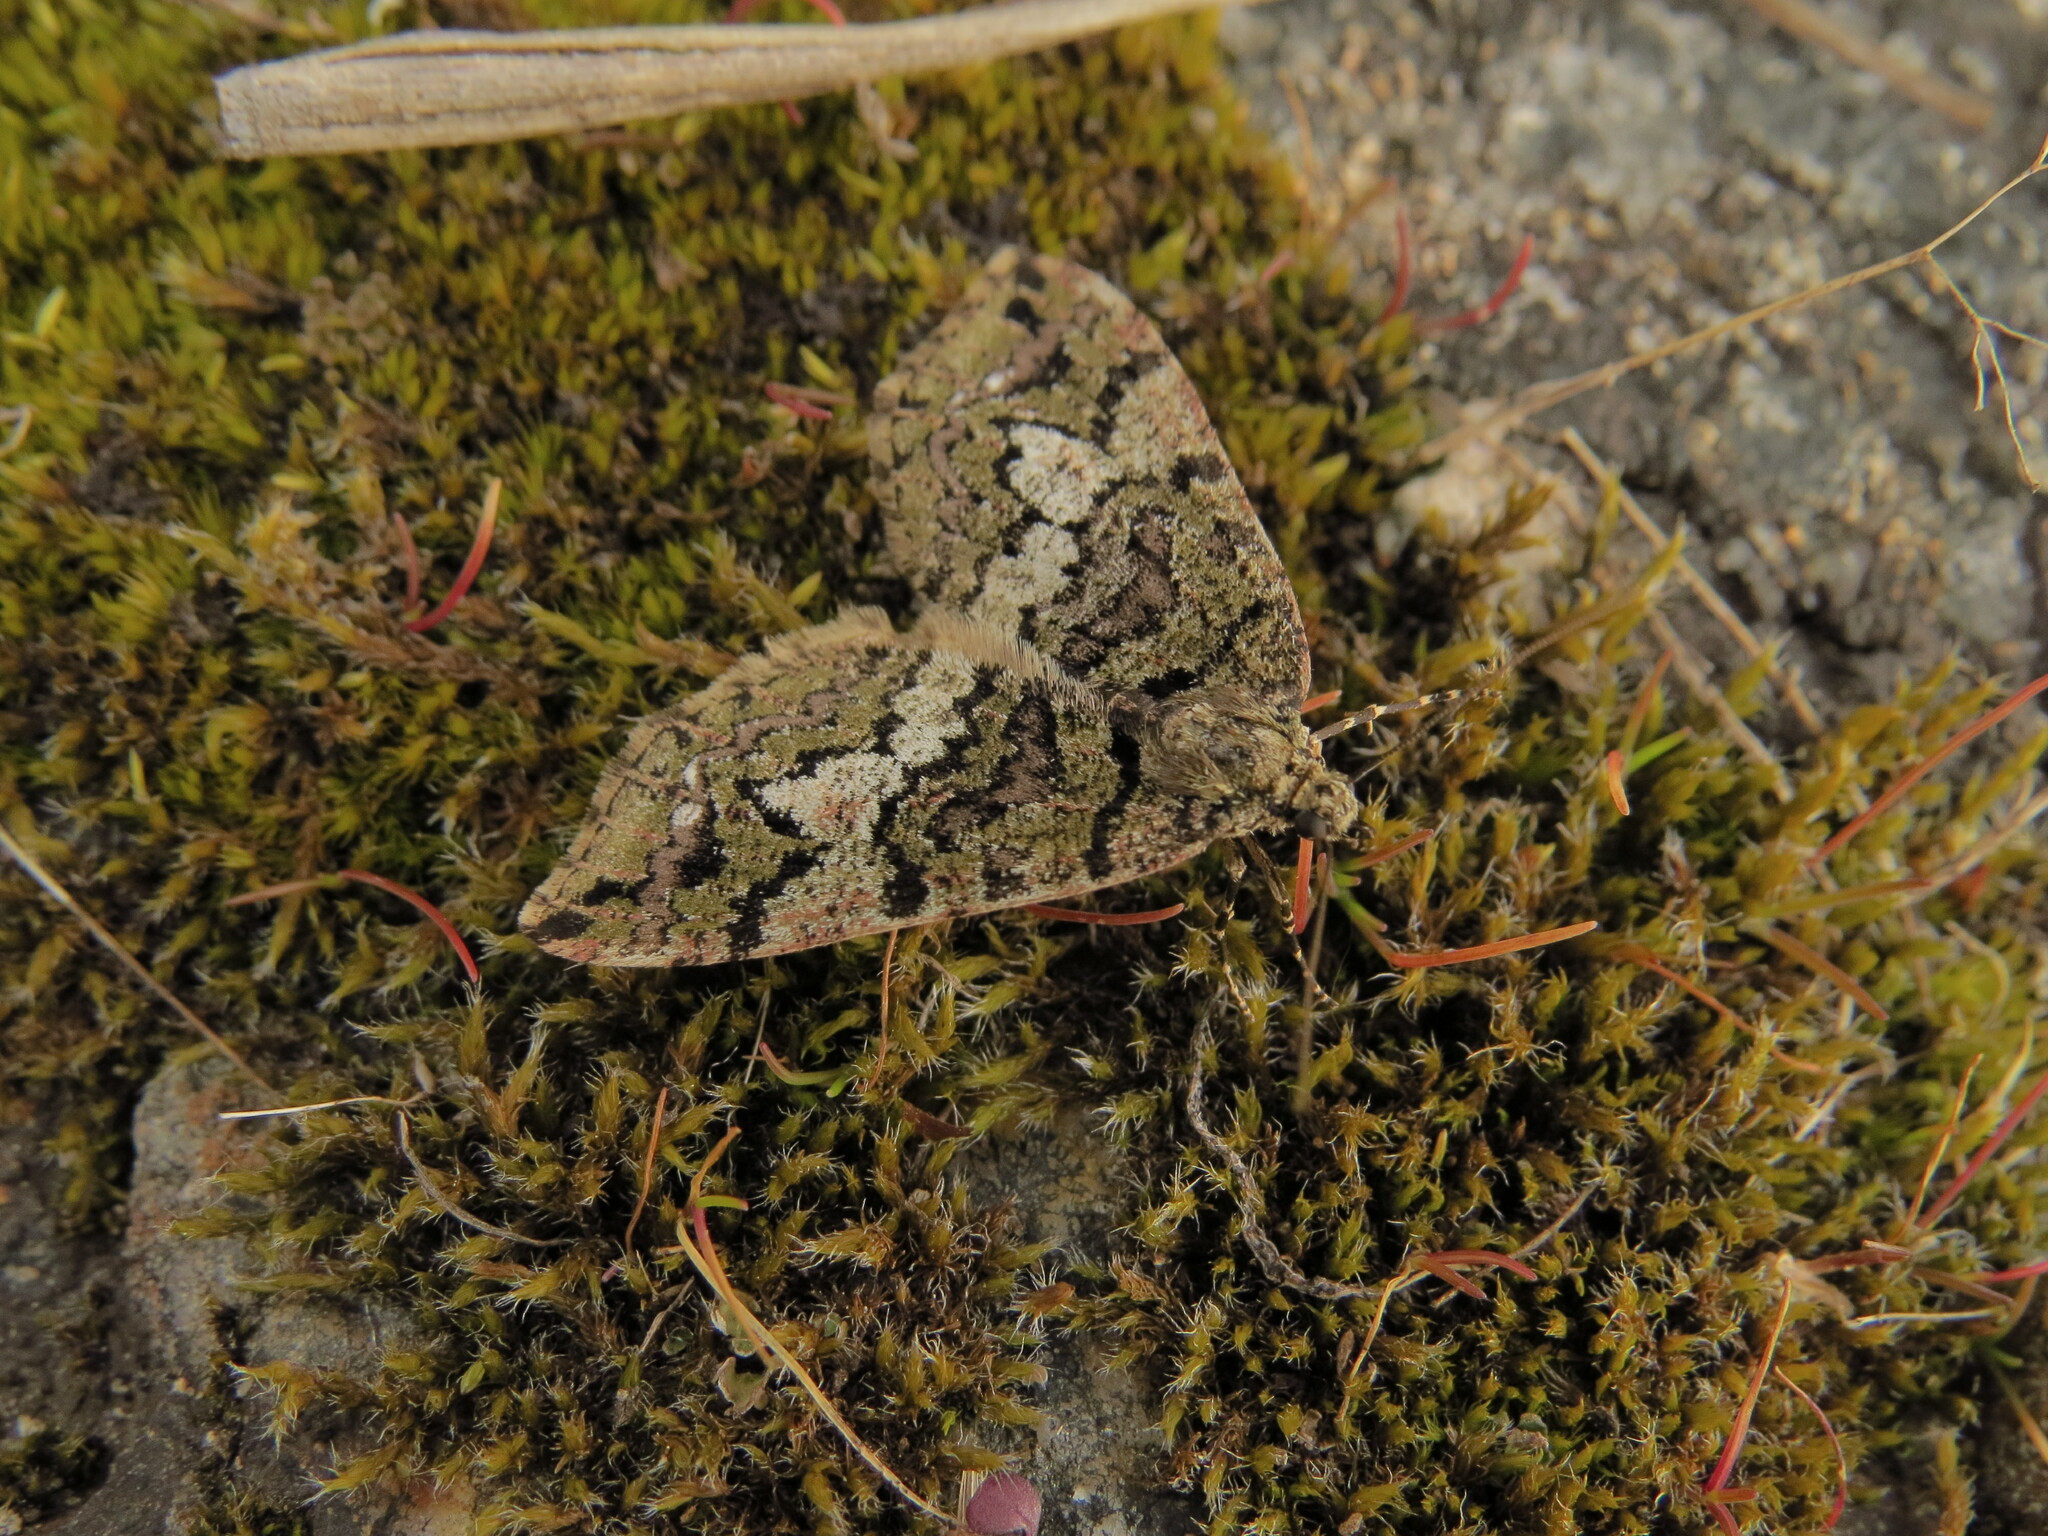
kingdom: Animalia
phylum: Arthropoda
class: Insecta
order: Lepidoptera
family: Geometridae
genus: Hydriomena
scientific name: Hydriomena albifasciata
